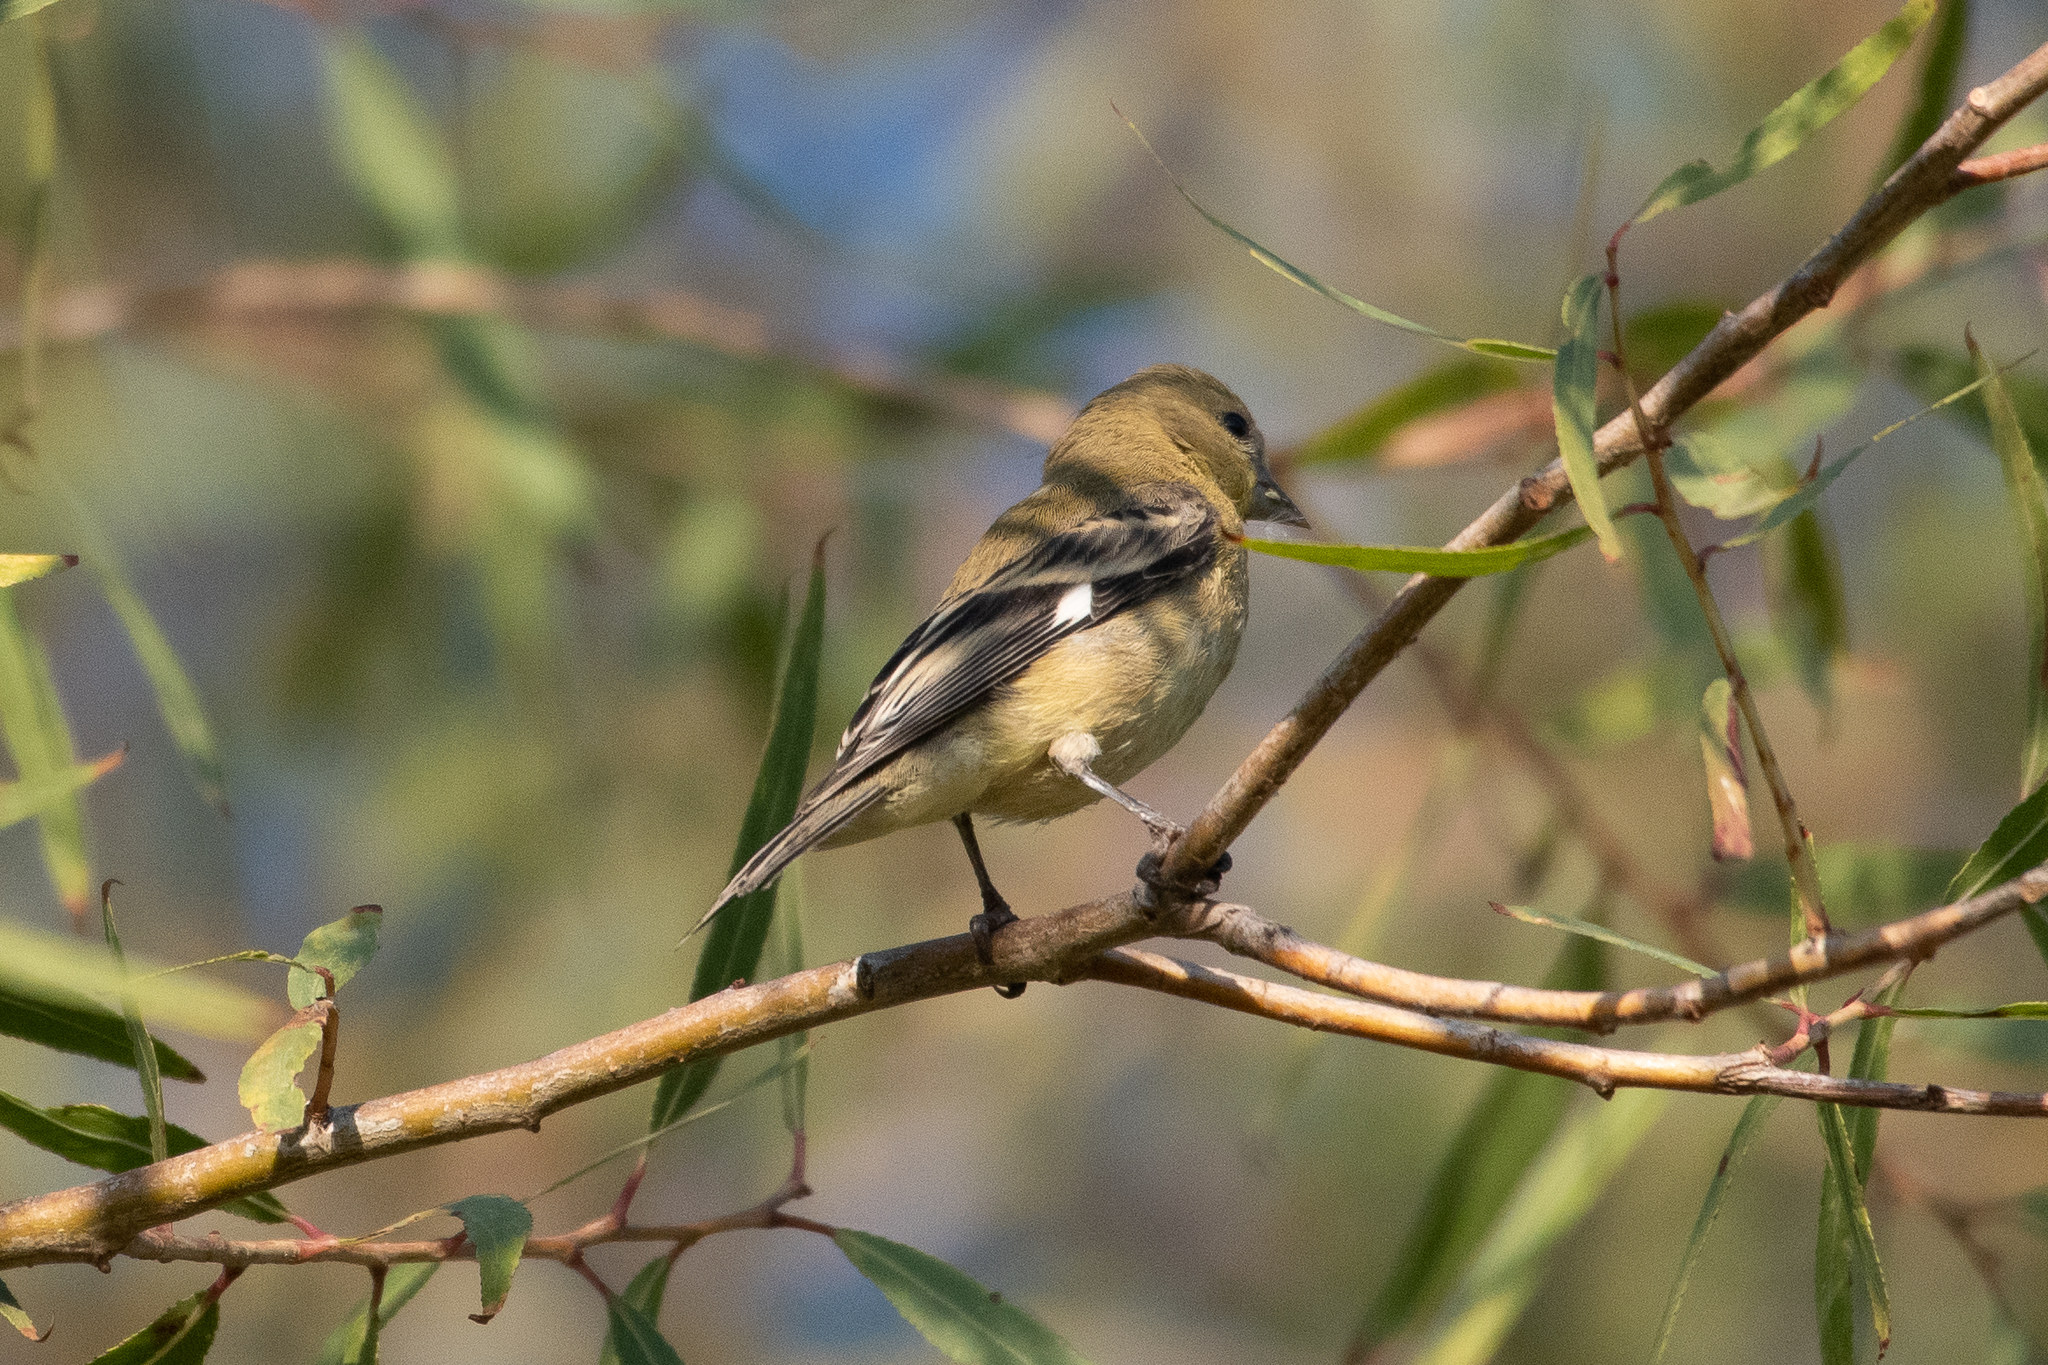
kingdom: Animalia
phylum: Chordata
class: Aves
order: Passeriformes
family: Fringillidae
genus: Spinus
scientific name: Spinus psaltria
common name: Lesser goldfinch
